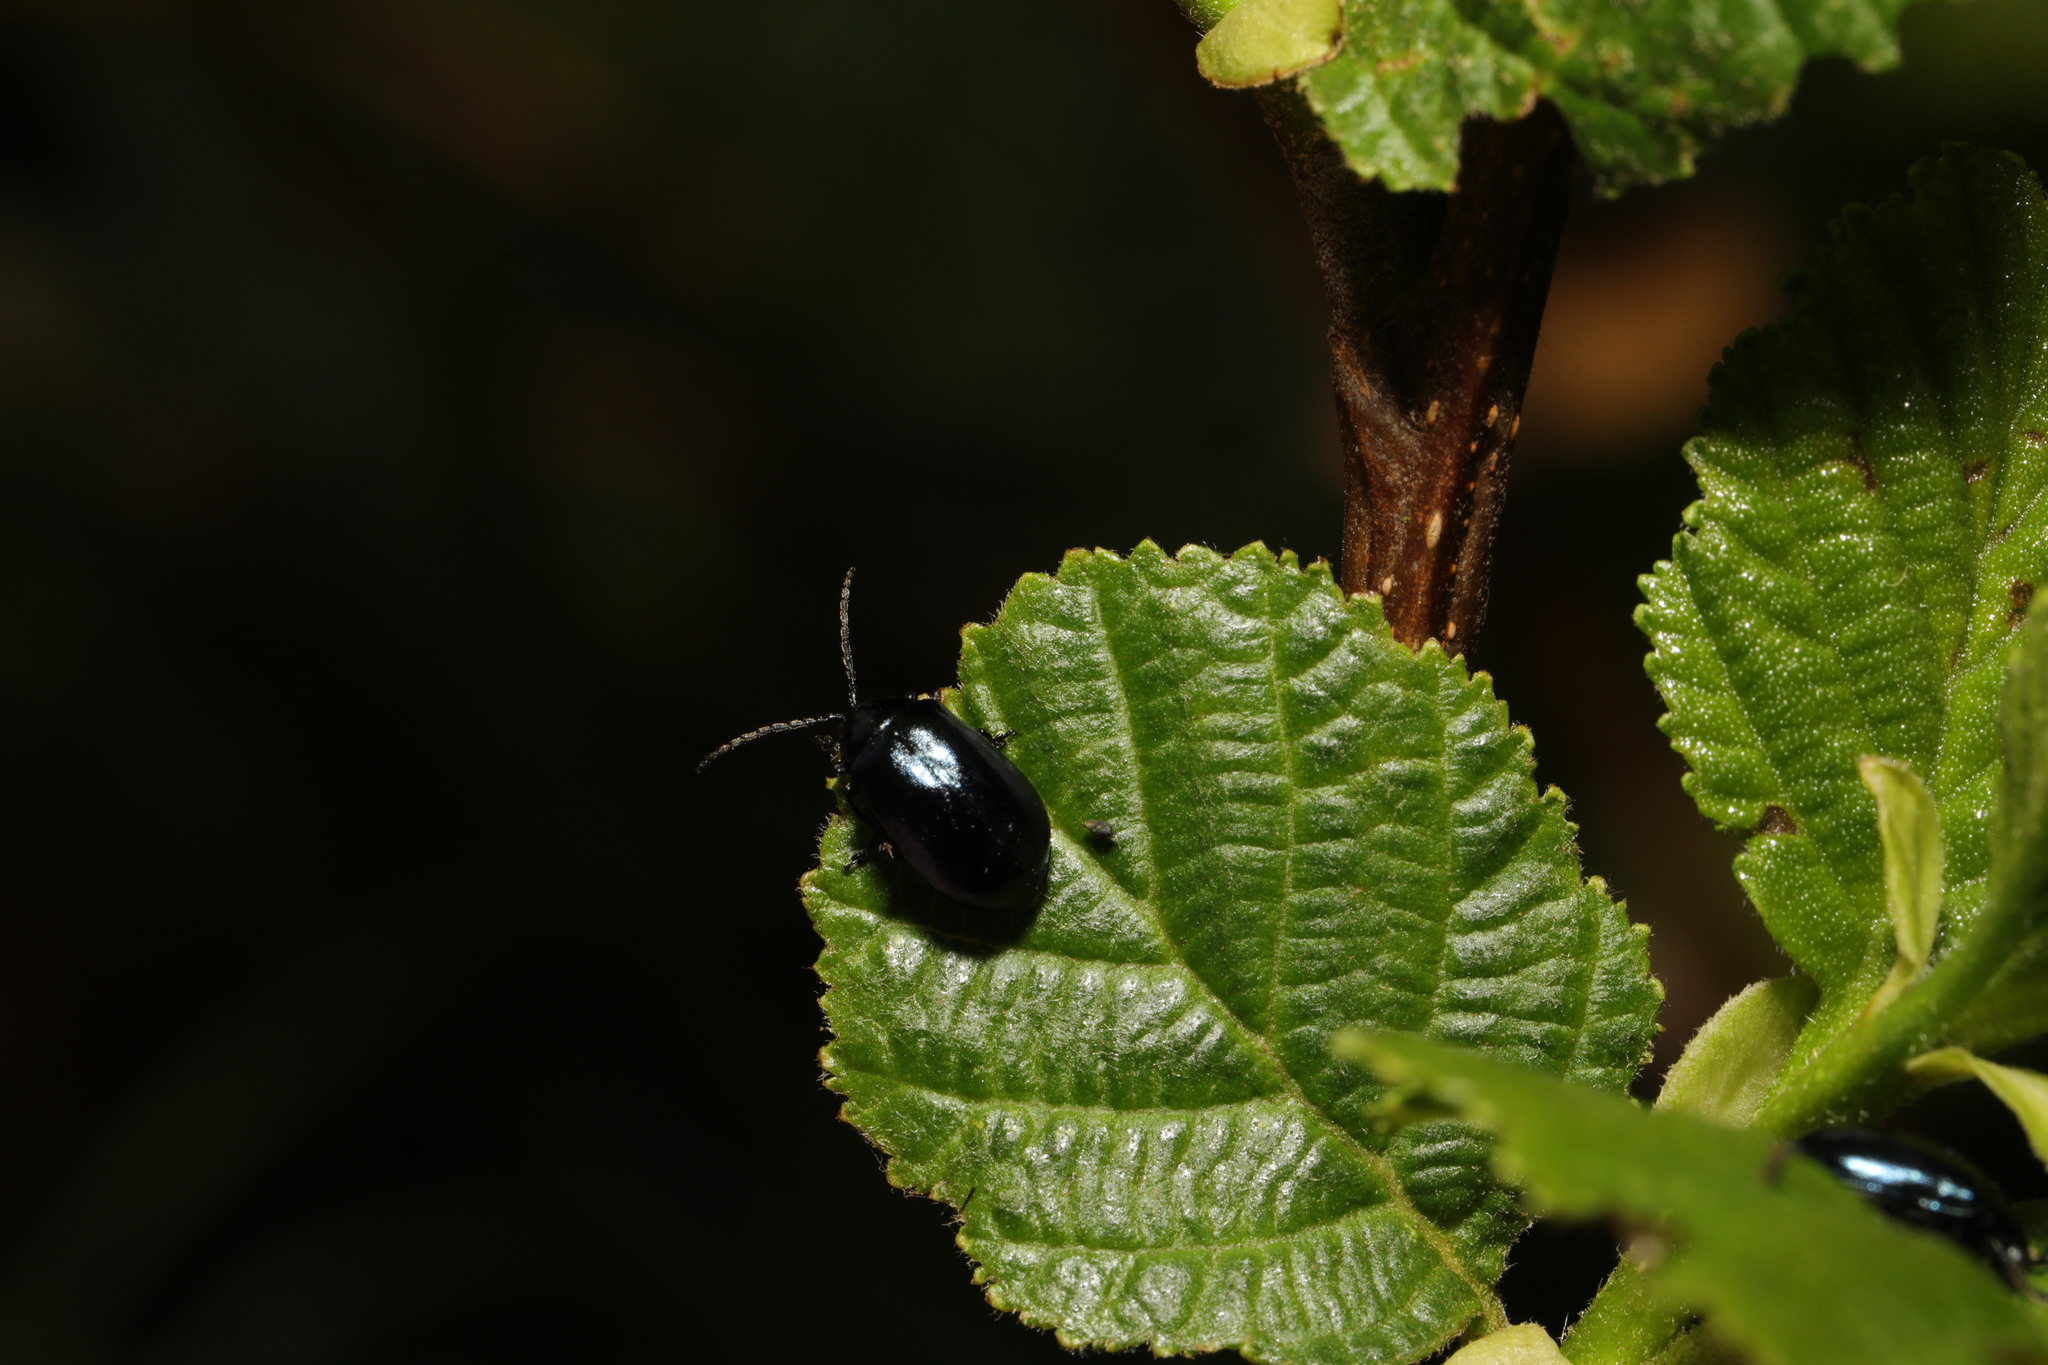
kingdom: Animalia
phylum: Arthropoda
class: Insecta
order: Coleoptera
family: Chrysomelidae
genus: Agelastica
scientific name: Agelastica alni
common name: Alder leaf beetle
